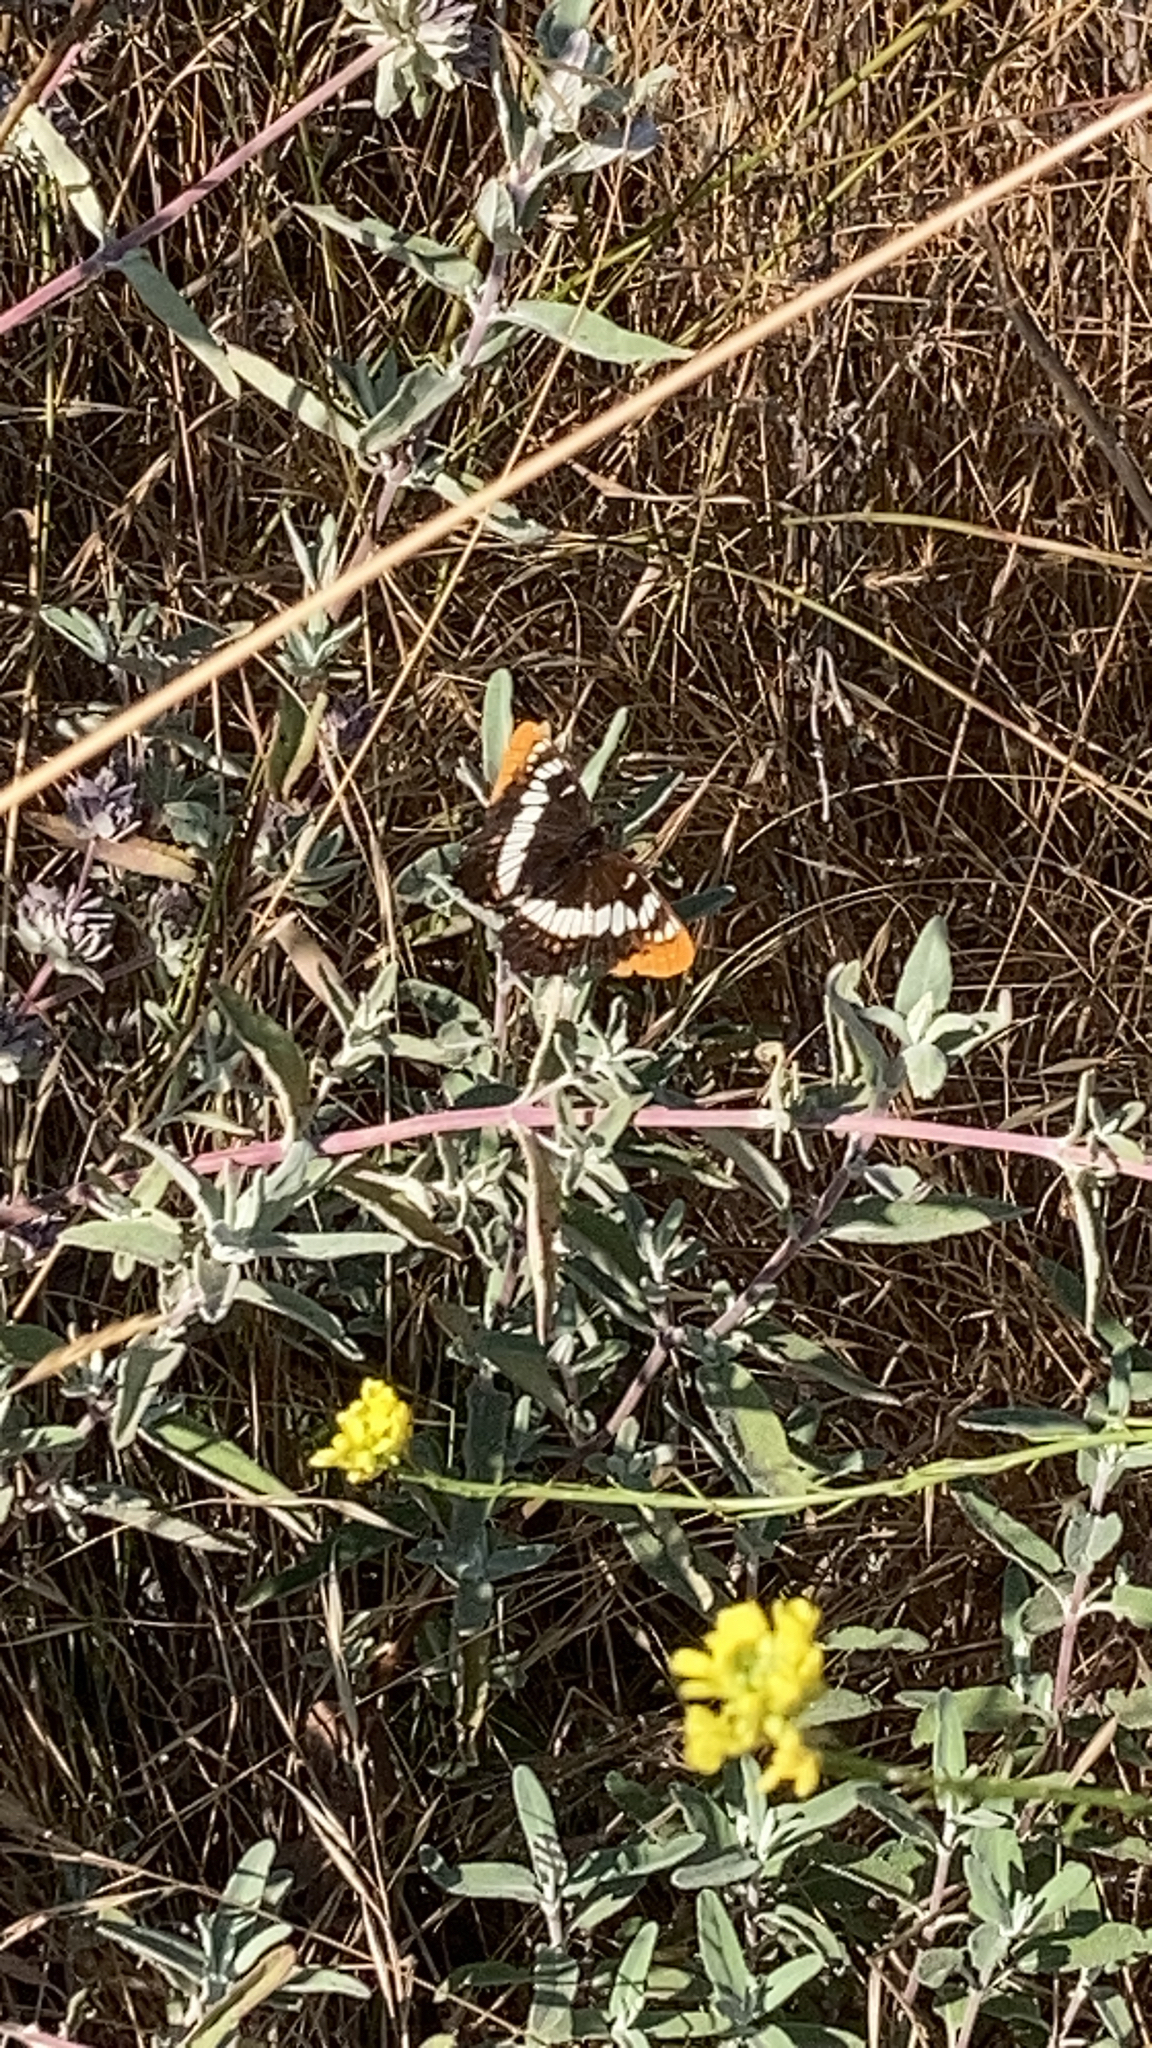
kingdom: Animalia
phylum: Arthropoda
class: Insecta
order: Lepidoptera
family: Nymphalidae
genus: Limenitis
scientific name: Limenitis lorquini
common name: Lorquin's admiral
